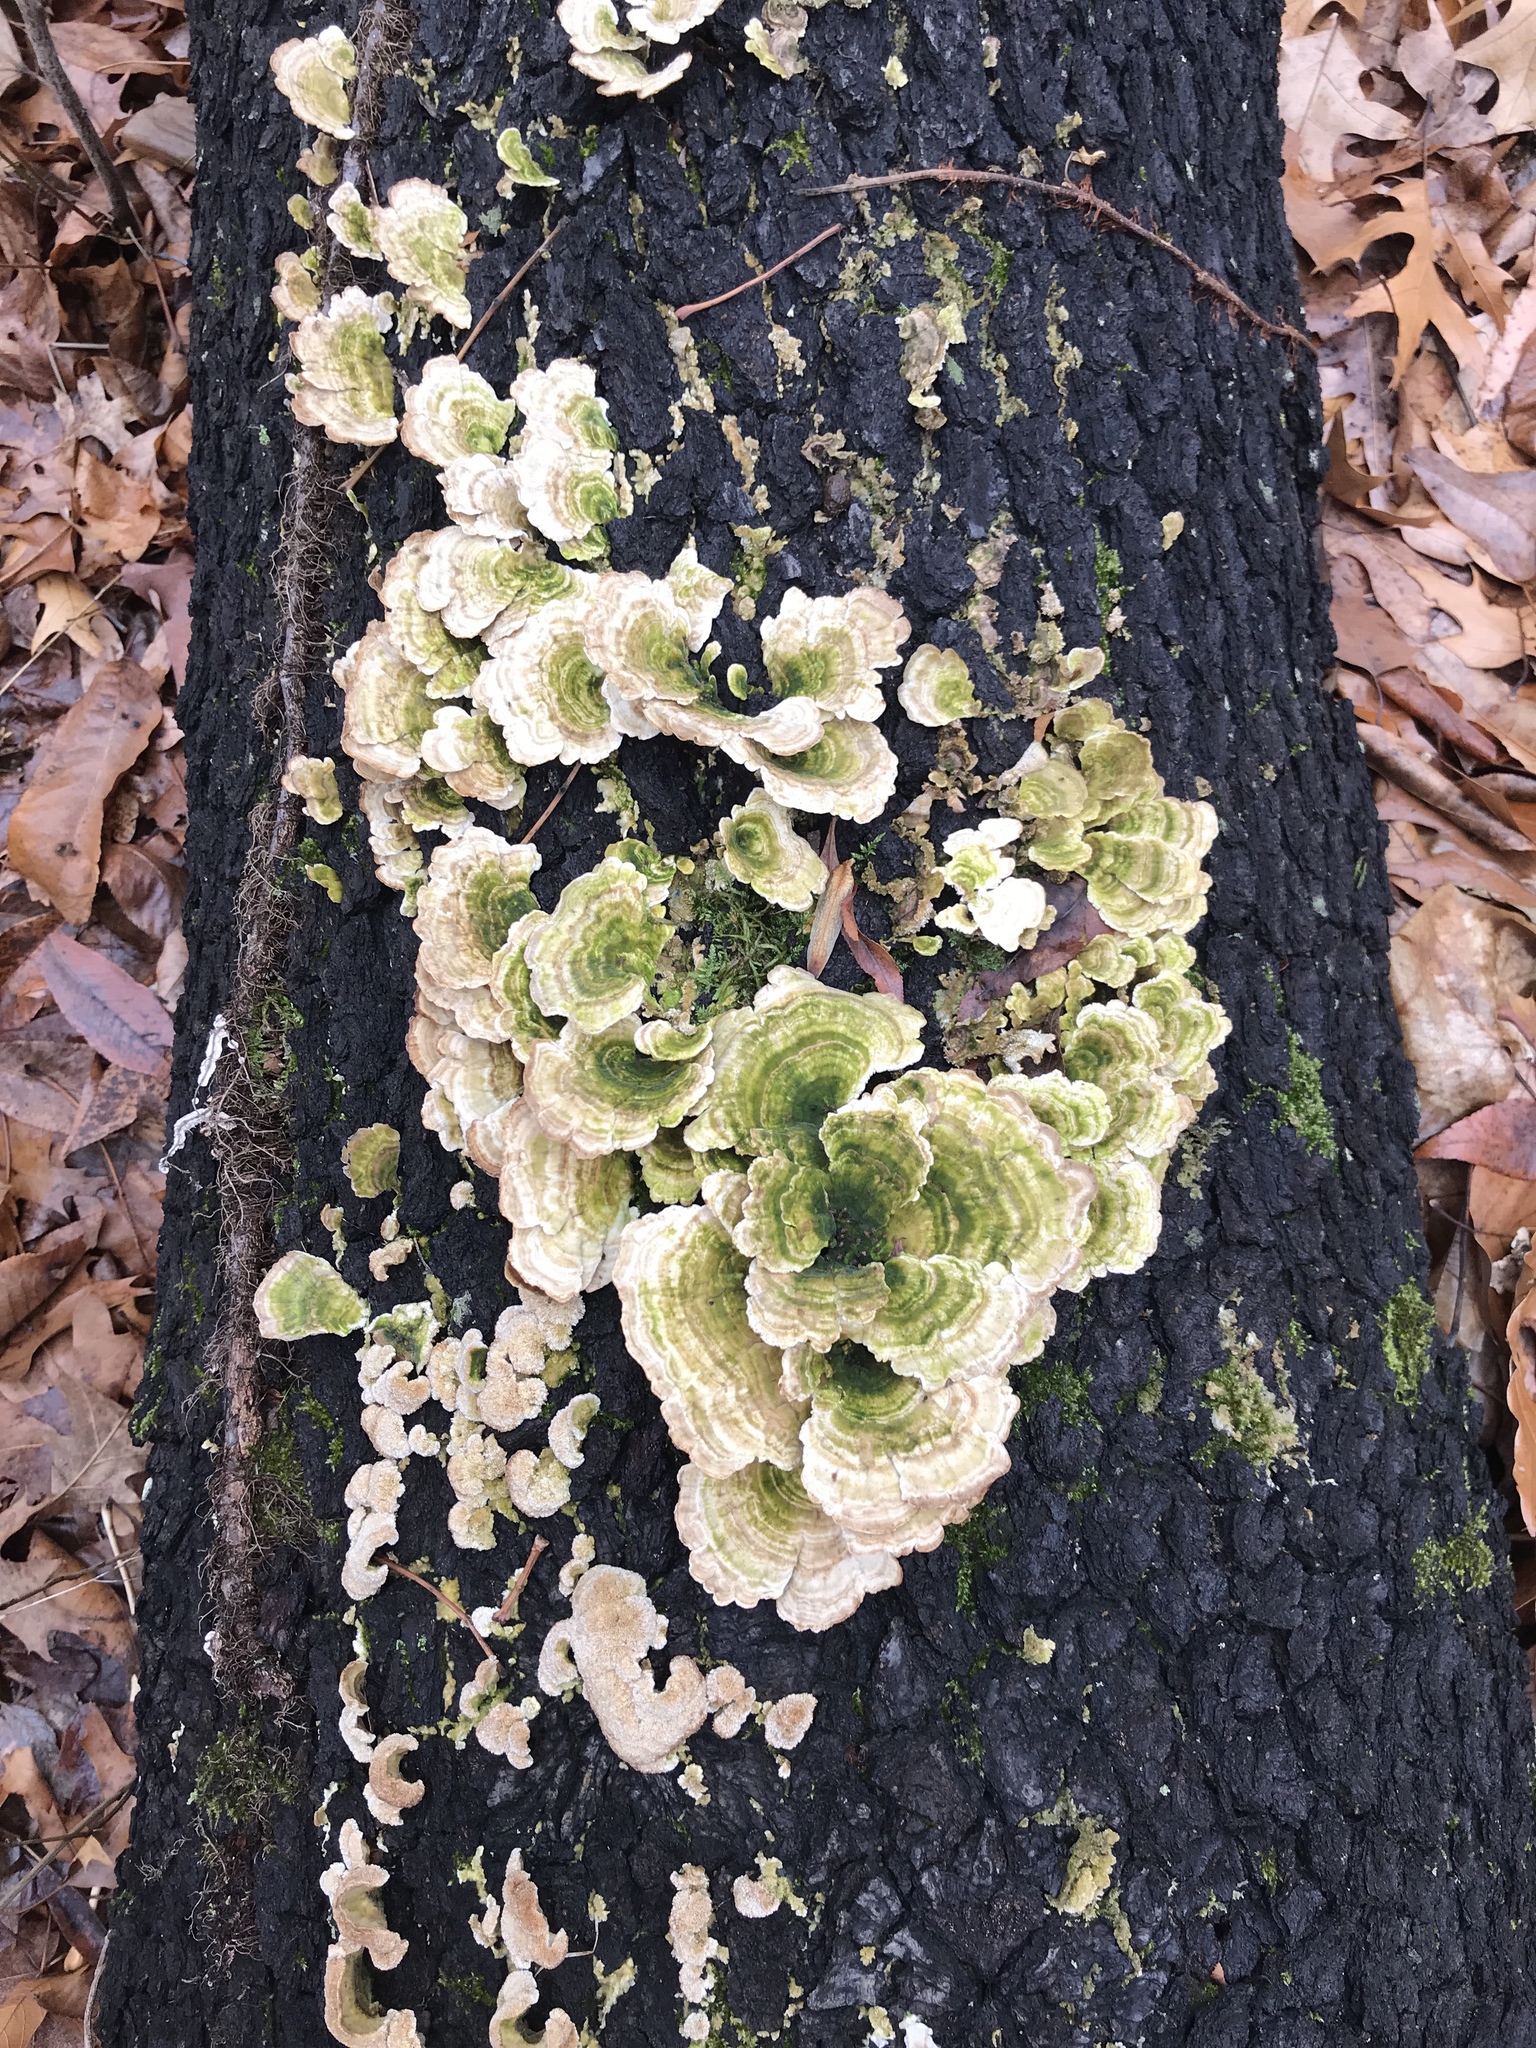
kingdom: Fungi
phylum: Basidiomycota
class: Agaricomycetes
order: Polyporales
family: Polyporaceae
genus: Trametes
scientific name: Trametes versicolor
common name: Turkeytail
